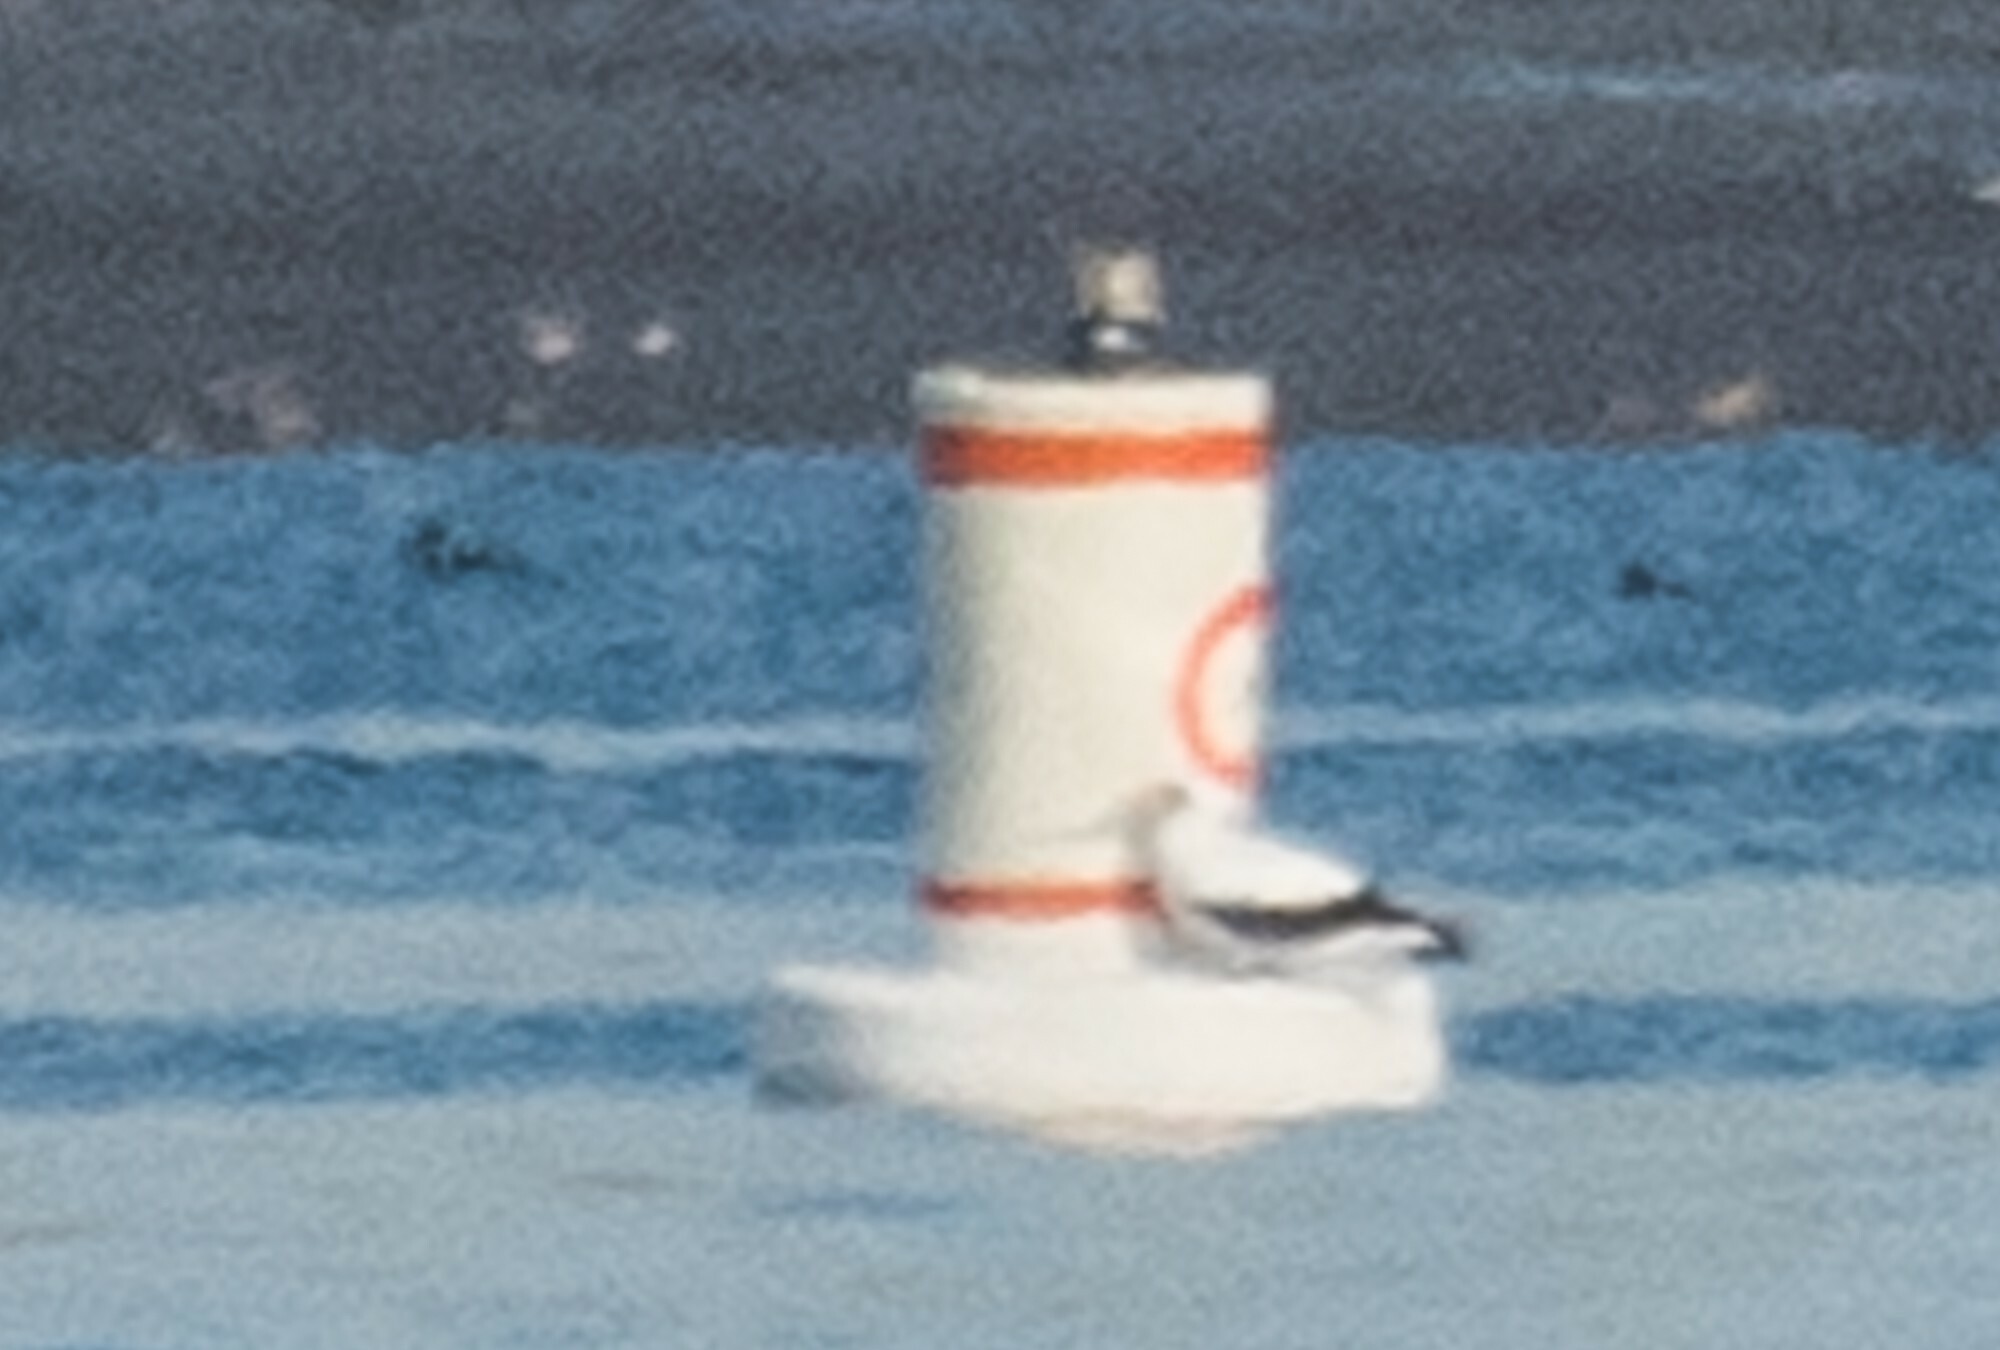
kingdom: Animalia
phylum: Chordata
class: Aves
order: Suliformes
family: Sulidae
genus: Sula
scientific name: Sula granti
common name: Nazca booby
